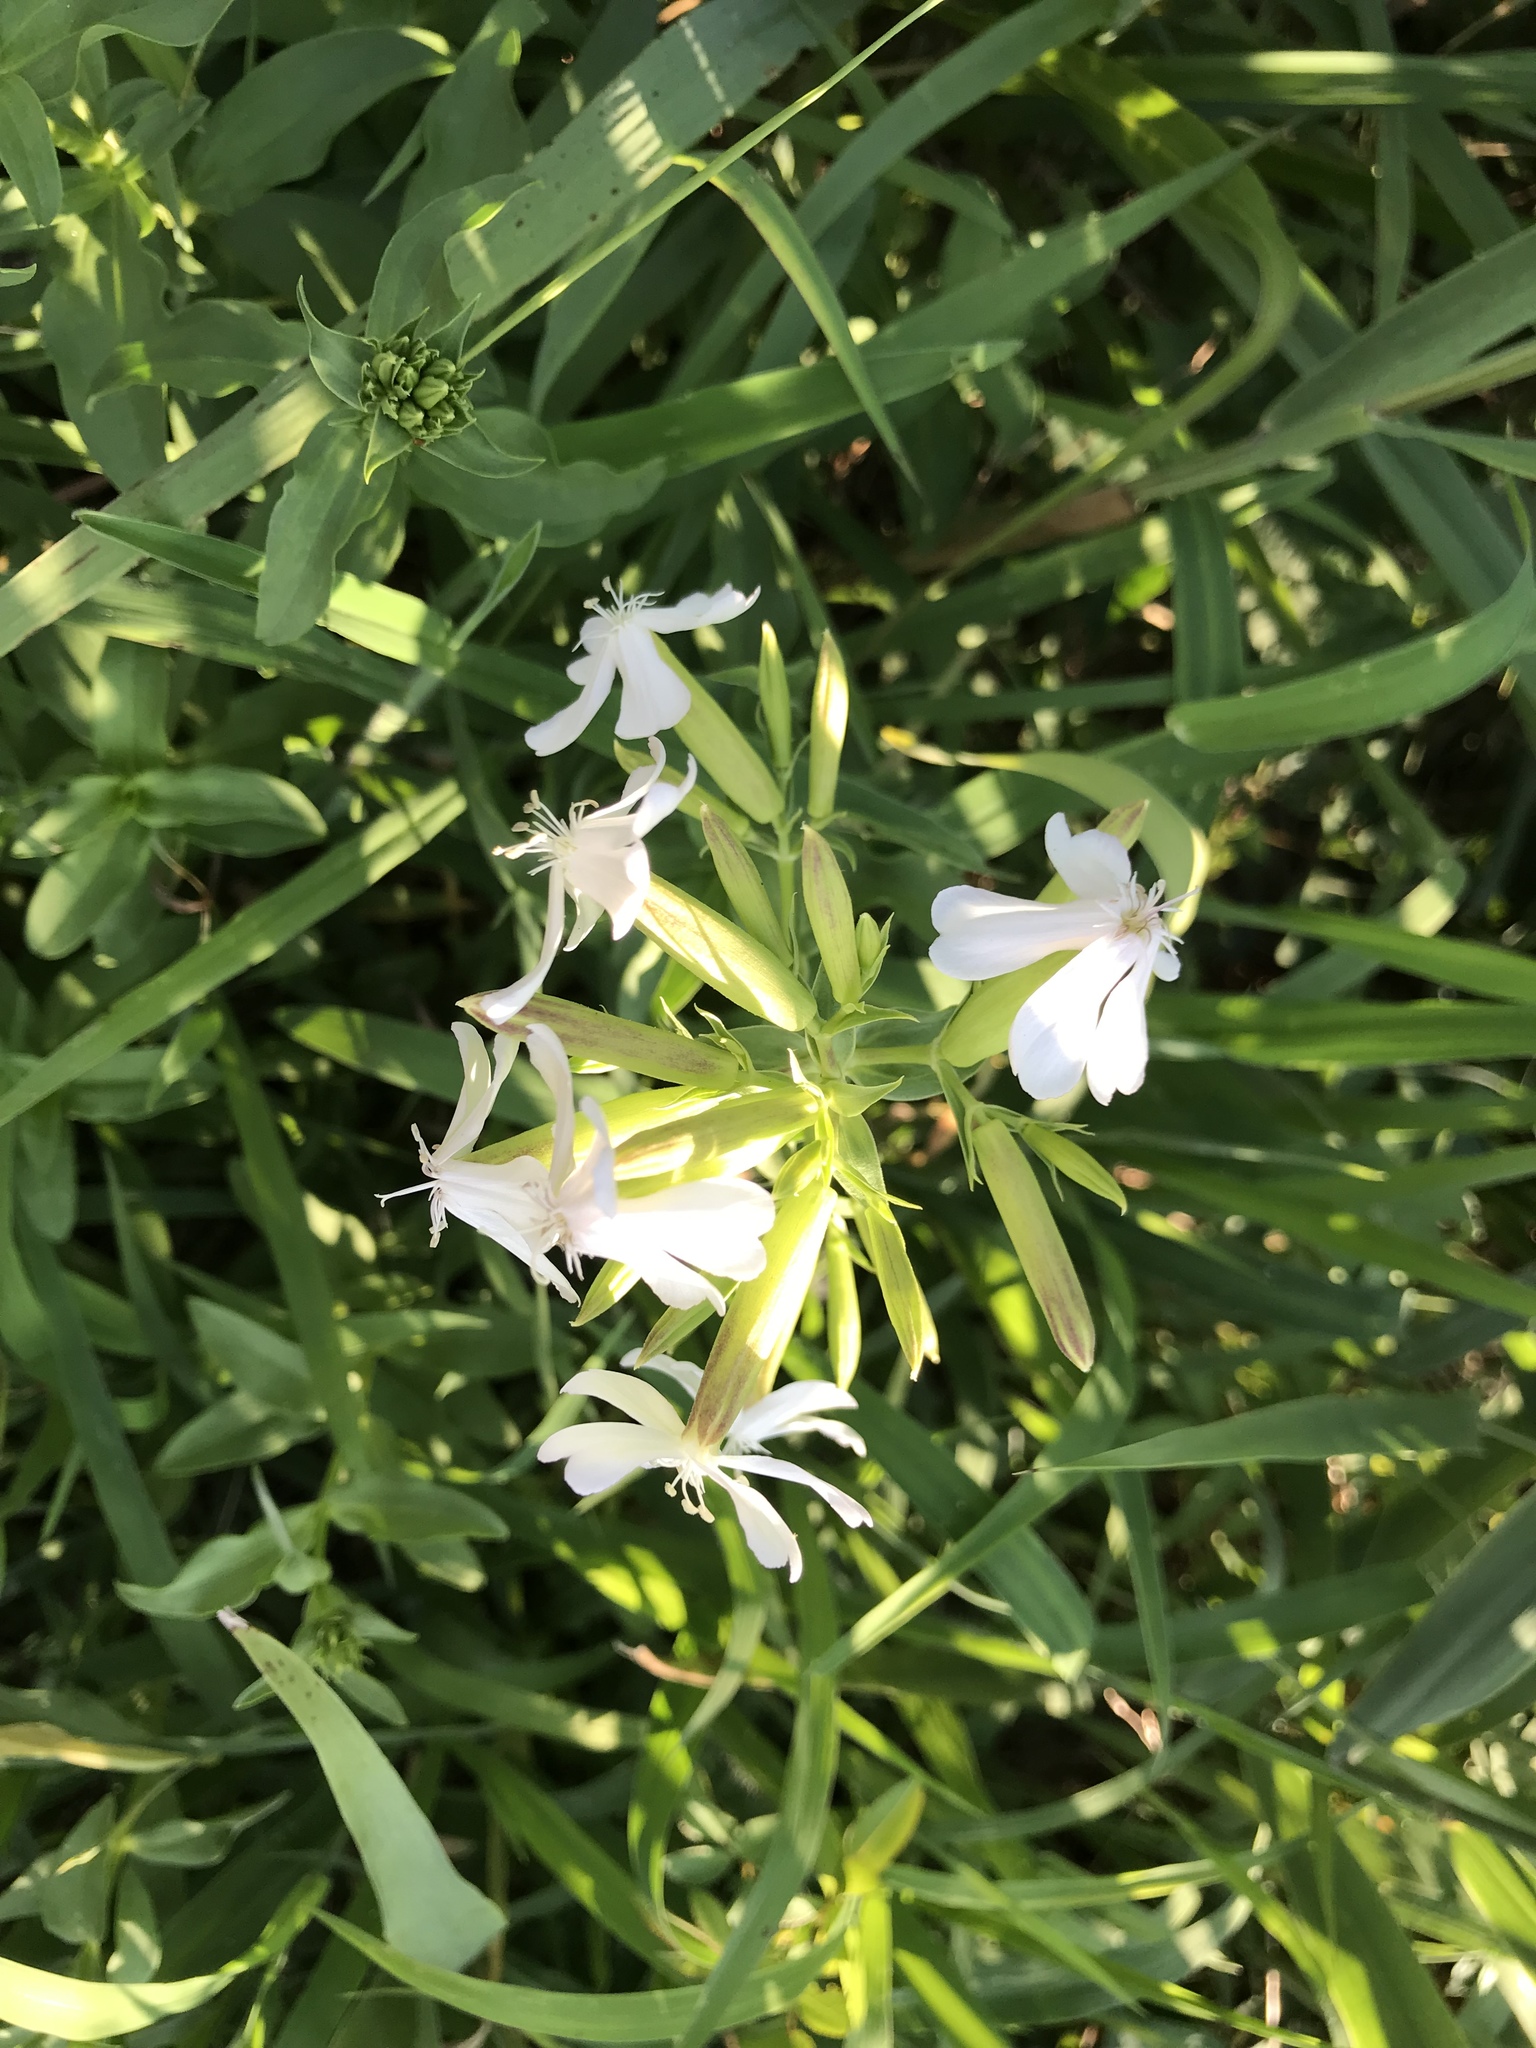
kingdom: Plantae
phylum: Tracheophyta
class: Magnoliopsida
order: Caryophyllales
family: Caryophyllaceae
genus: Saponaria
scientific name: Saponaria officinalis
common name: Soapwort
